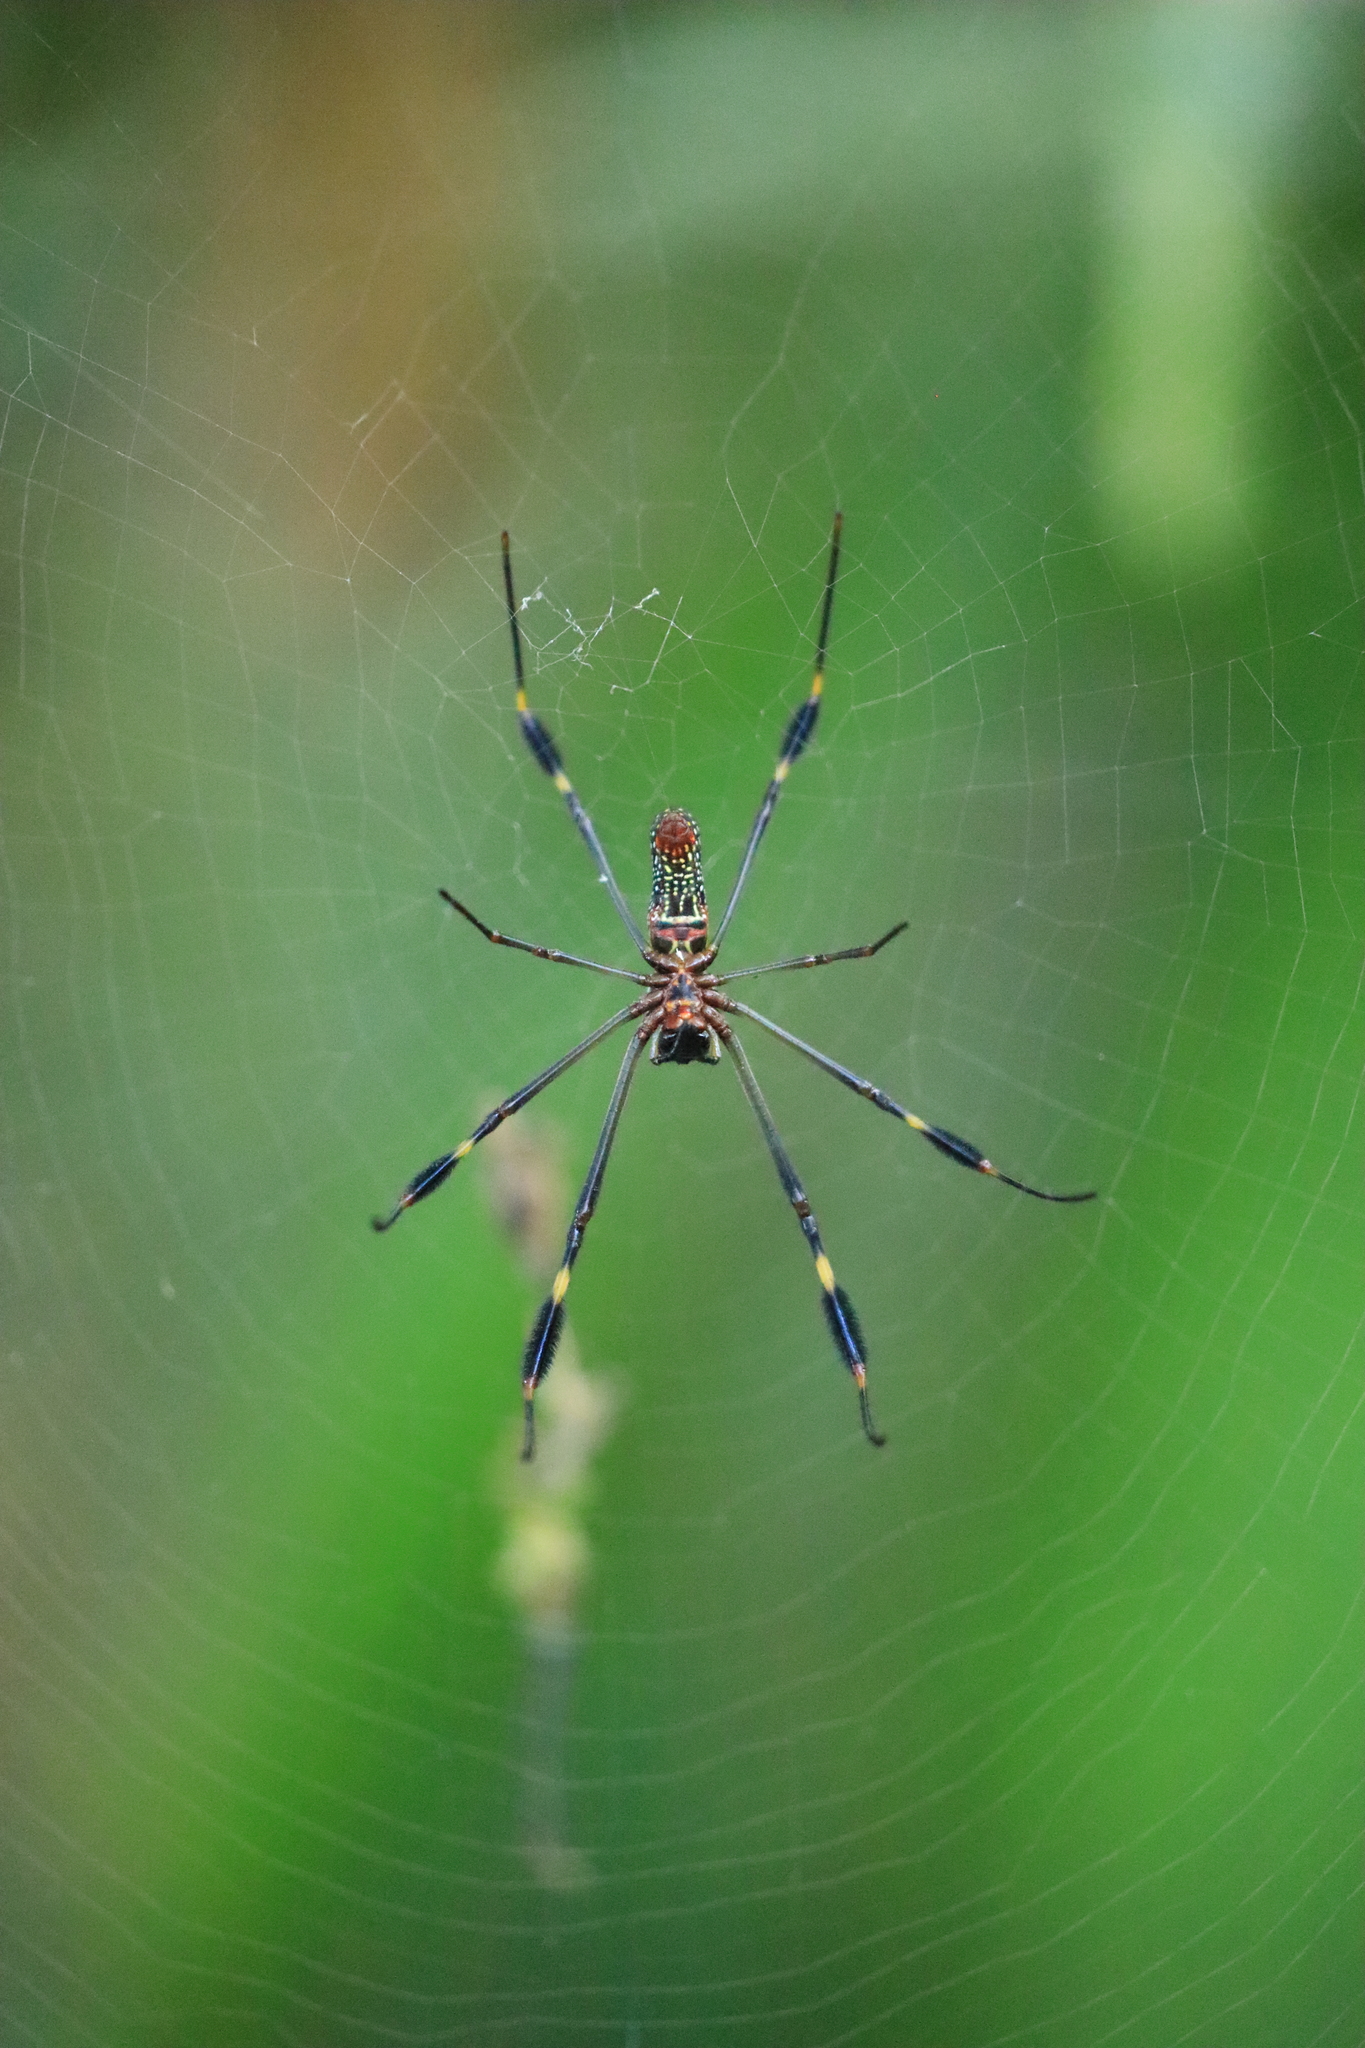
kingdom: Animalia
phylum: Arthropoda
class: Arachnida
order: Araneae
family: Araneidae
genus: Trichonephila
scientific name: Trichonephila clavipes
